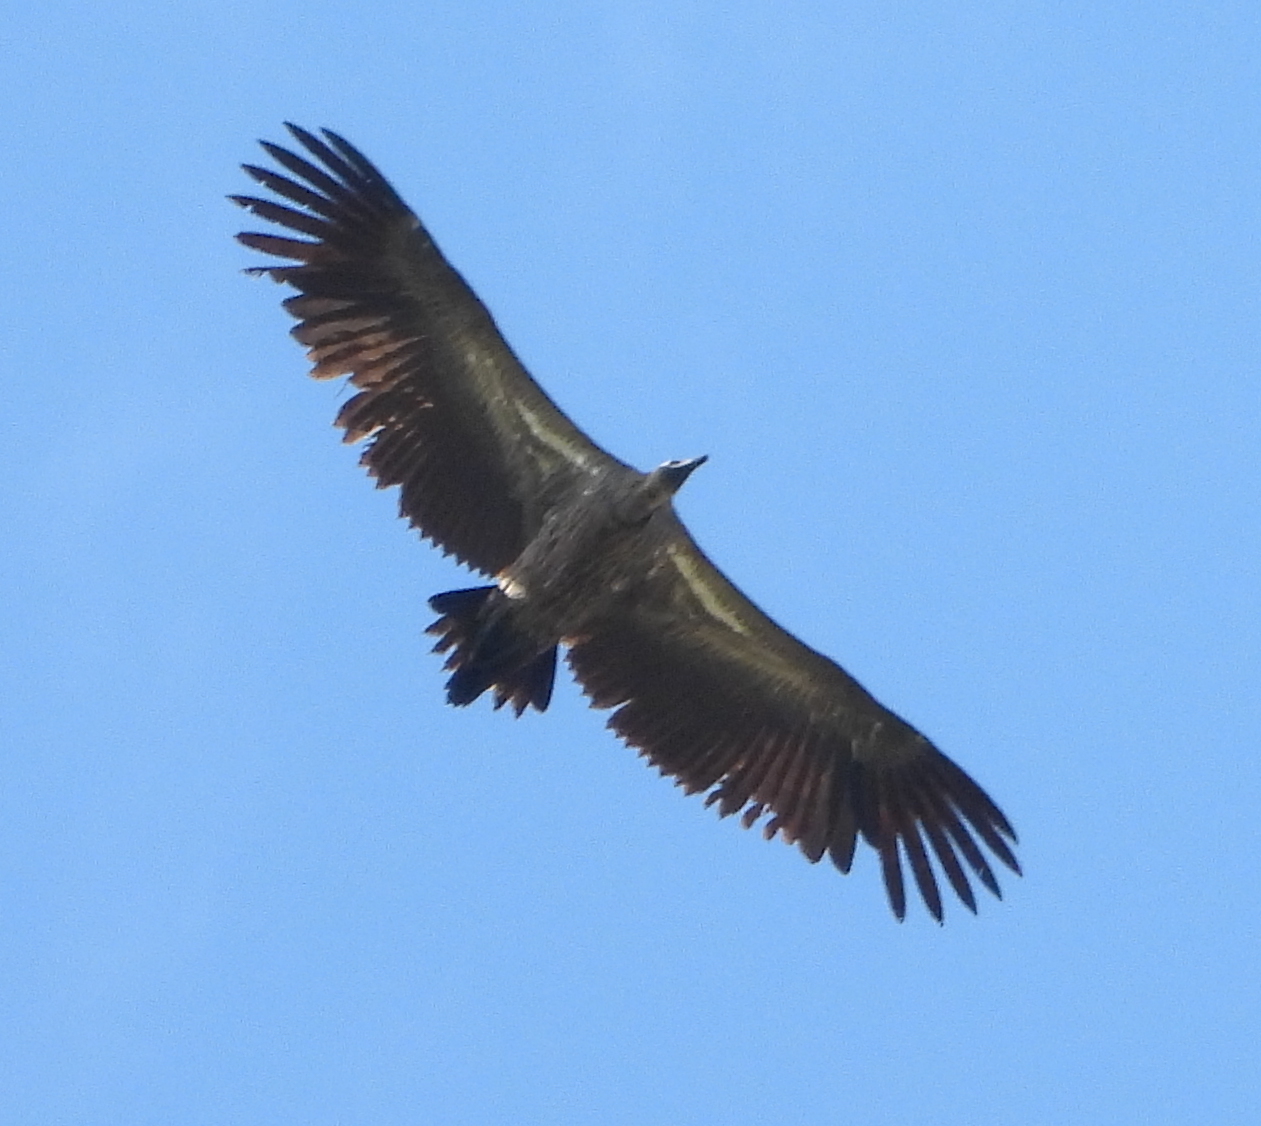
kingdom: Animalia
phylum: Chordata
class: Aves
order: Accipitriformes
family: Accipitridae
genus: Gyps
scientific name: Gyps africanus
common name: White-backed vulture
